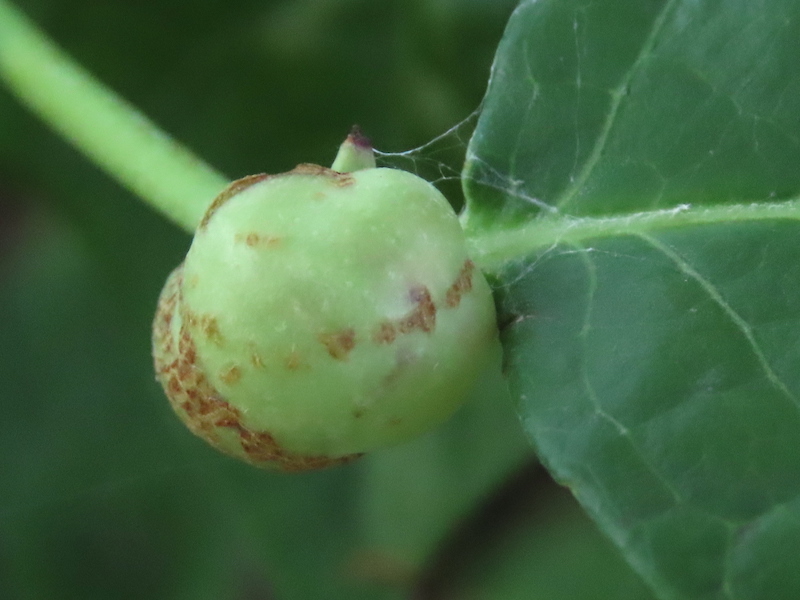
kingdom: Animalia
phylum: Arthropoda
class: Insecta
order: Hymenoptera
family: Pteromalidae
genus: Hemadas
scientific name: Hemadas nubilipennis
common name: Blueberry stem gall wasp
